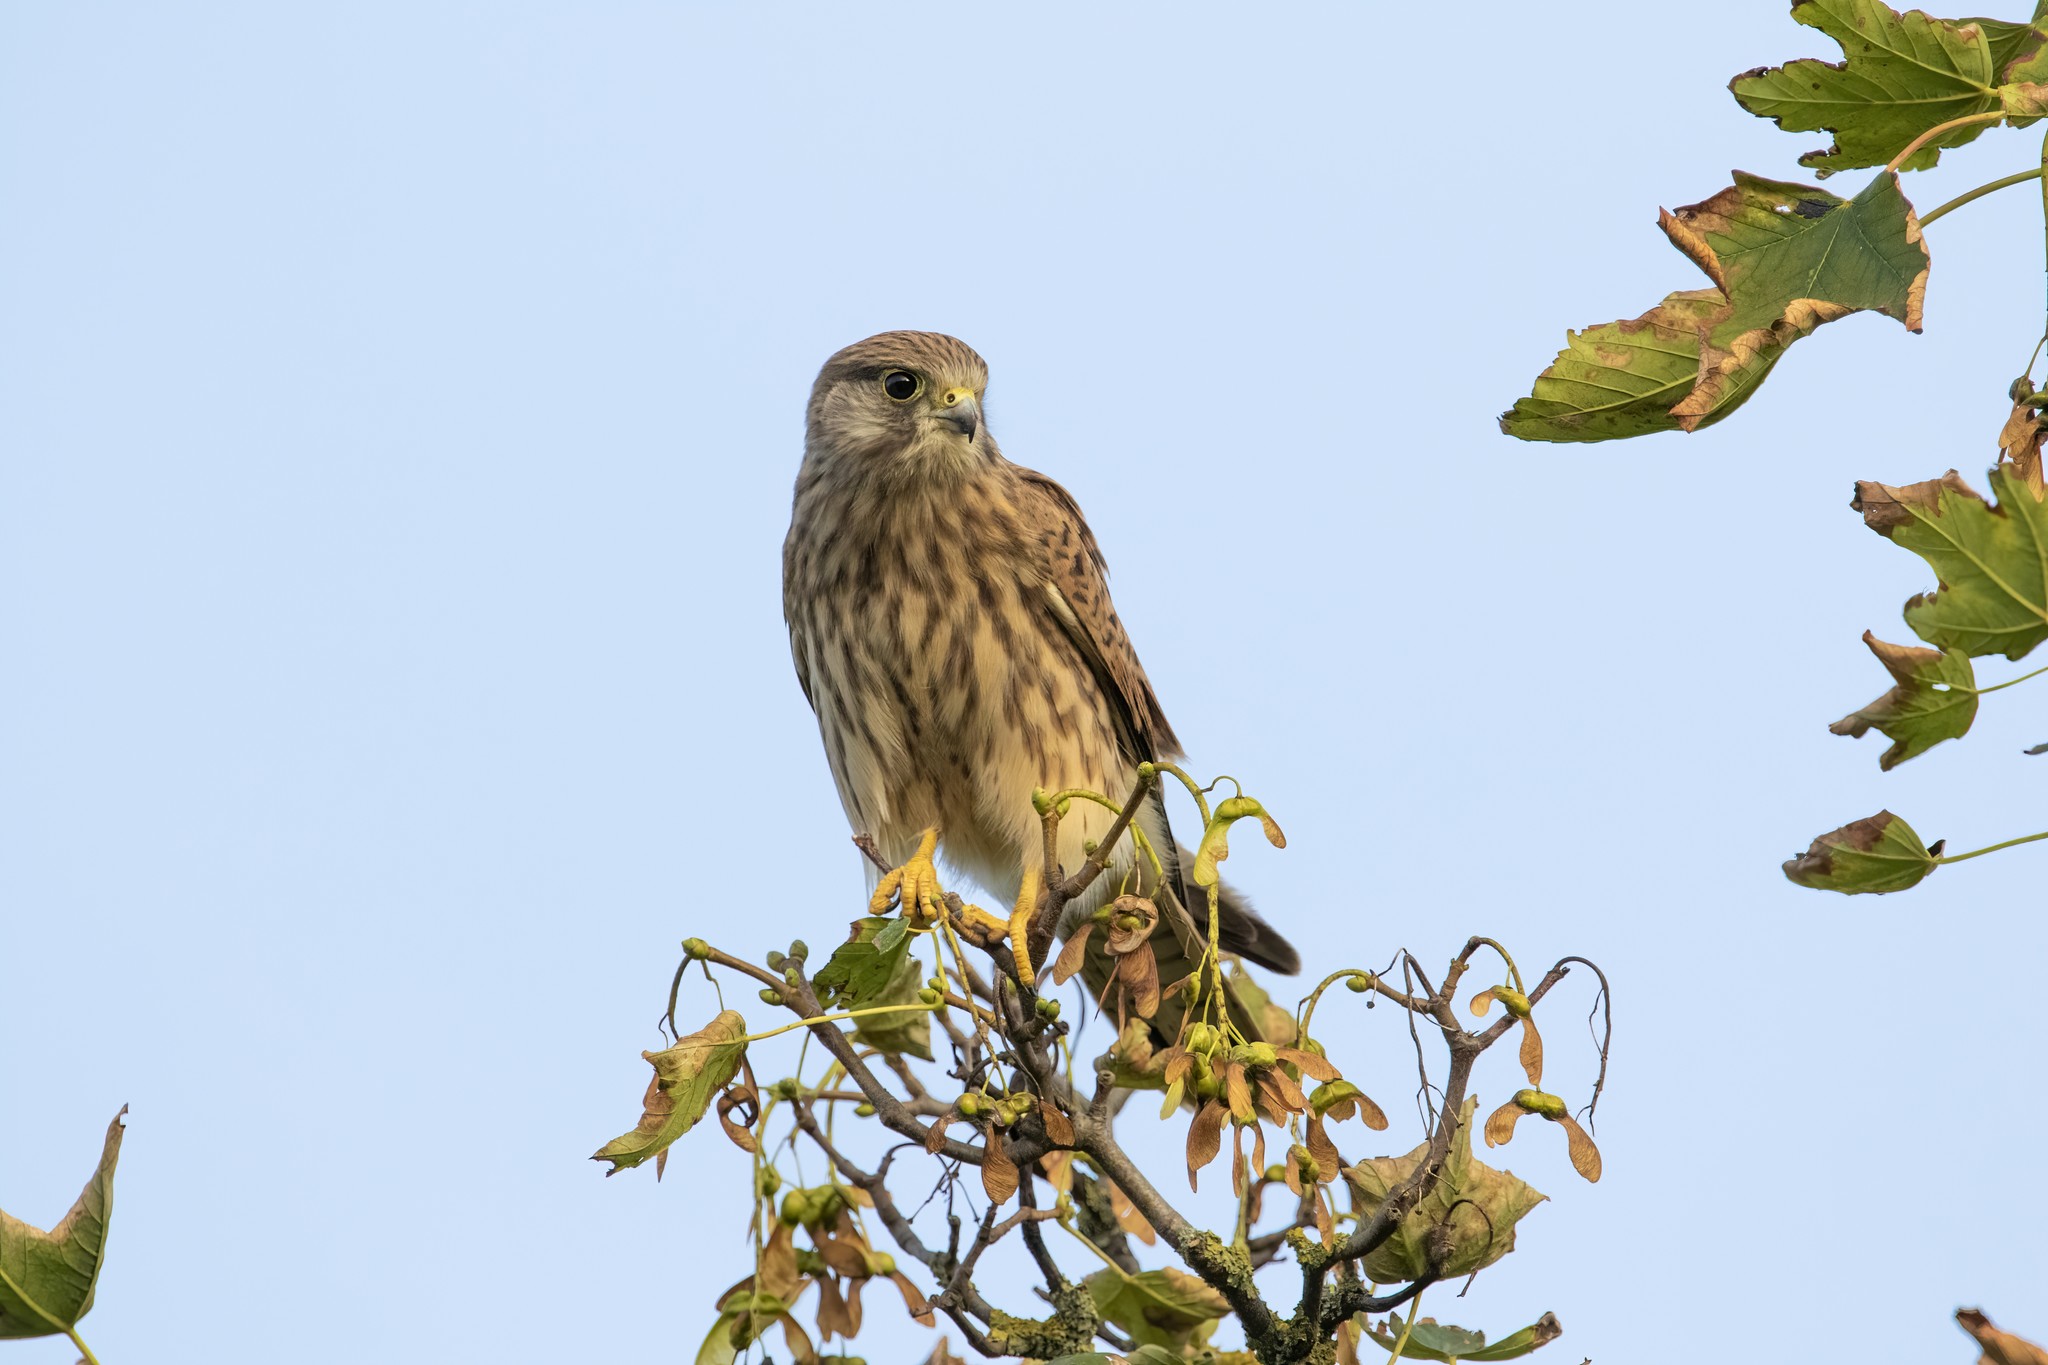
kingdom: Animalia
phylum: Chordata
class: Aves
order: Falconiformes
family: Falconidae
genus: Falco
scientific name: Falco tinnunculus
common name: Common kestrel
